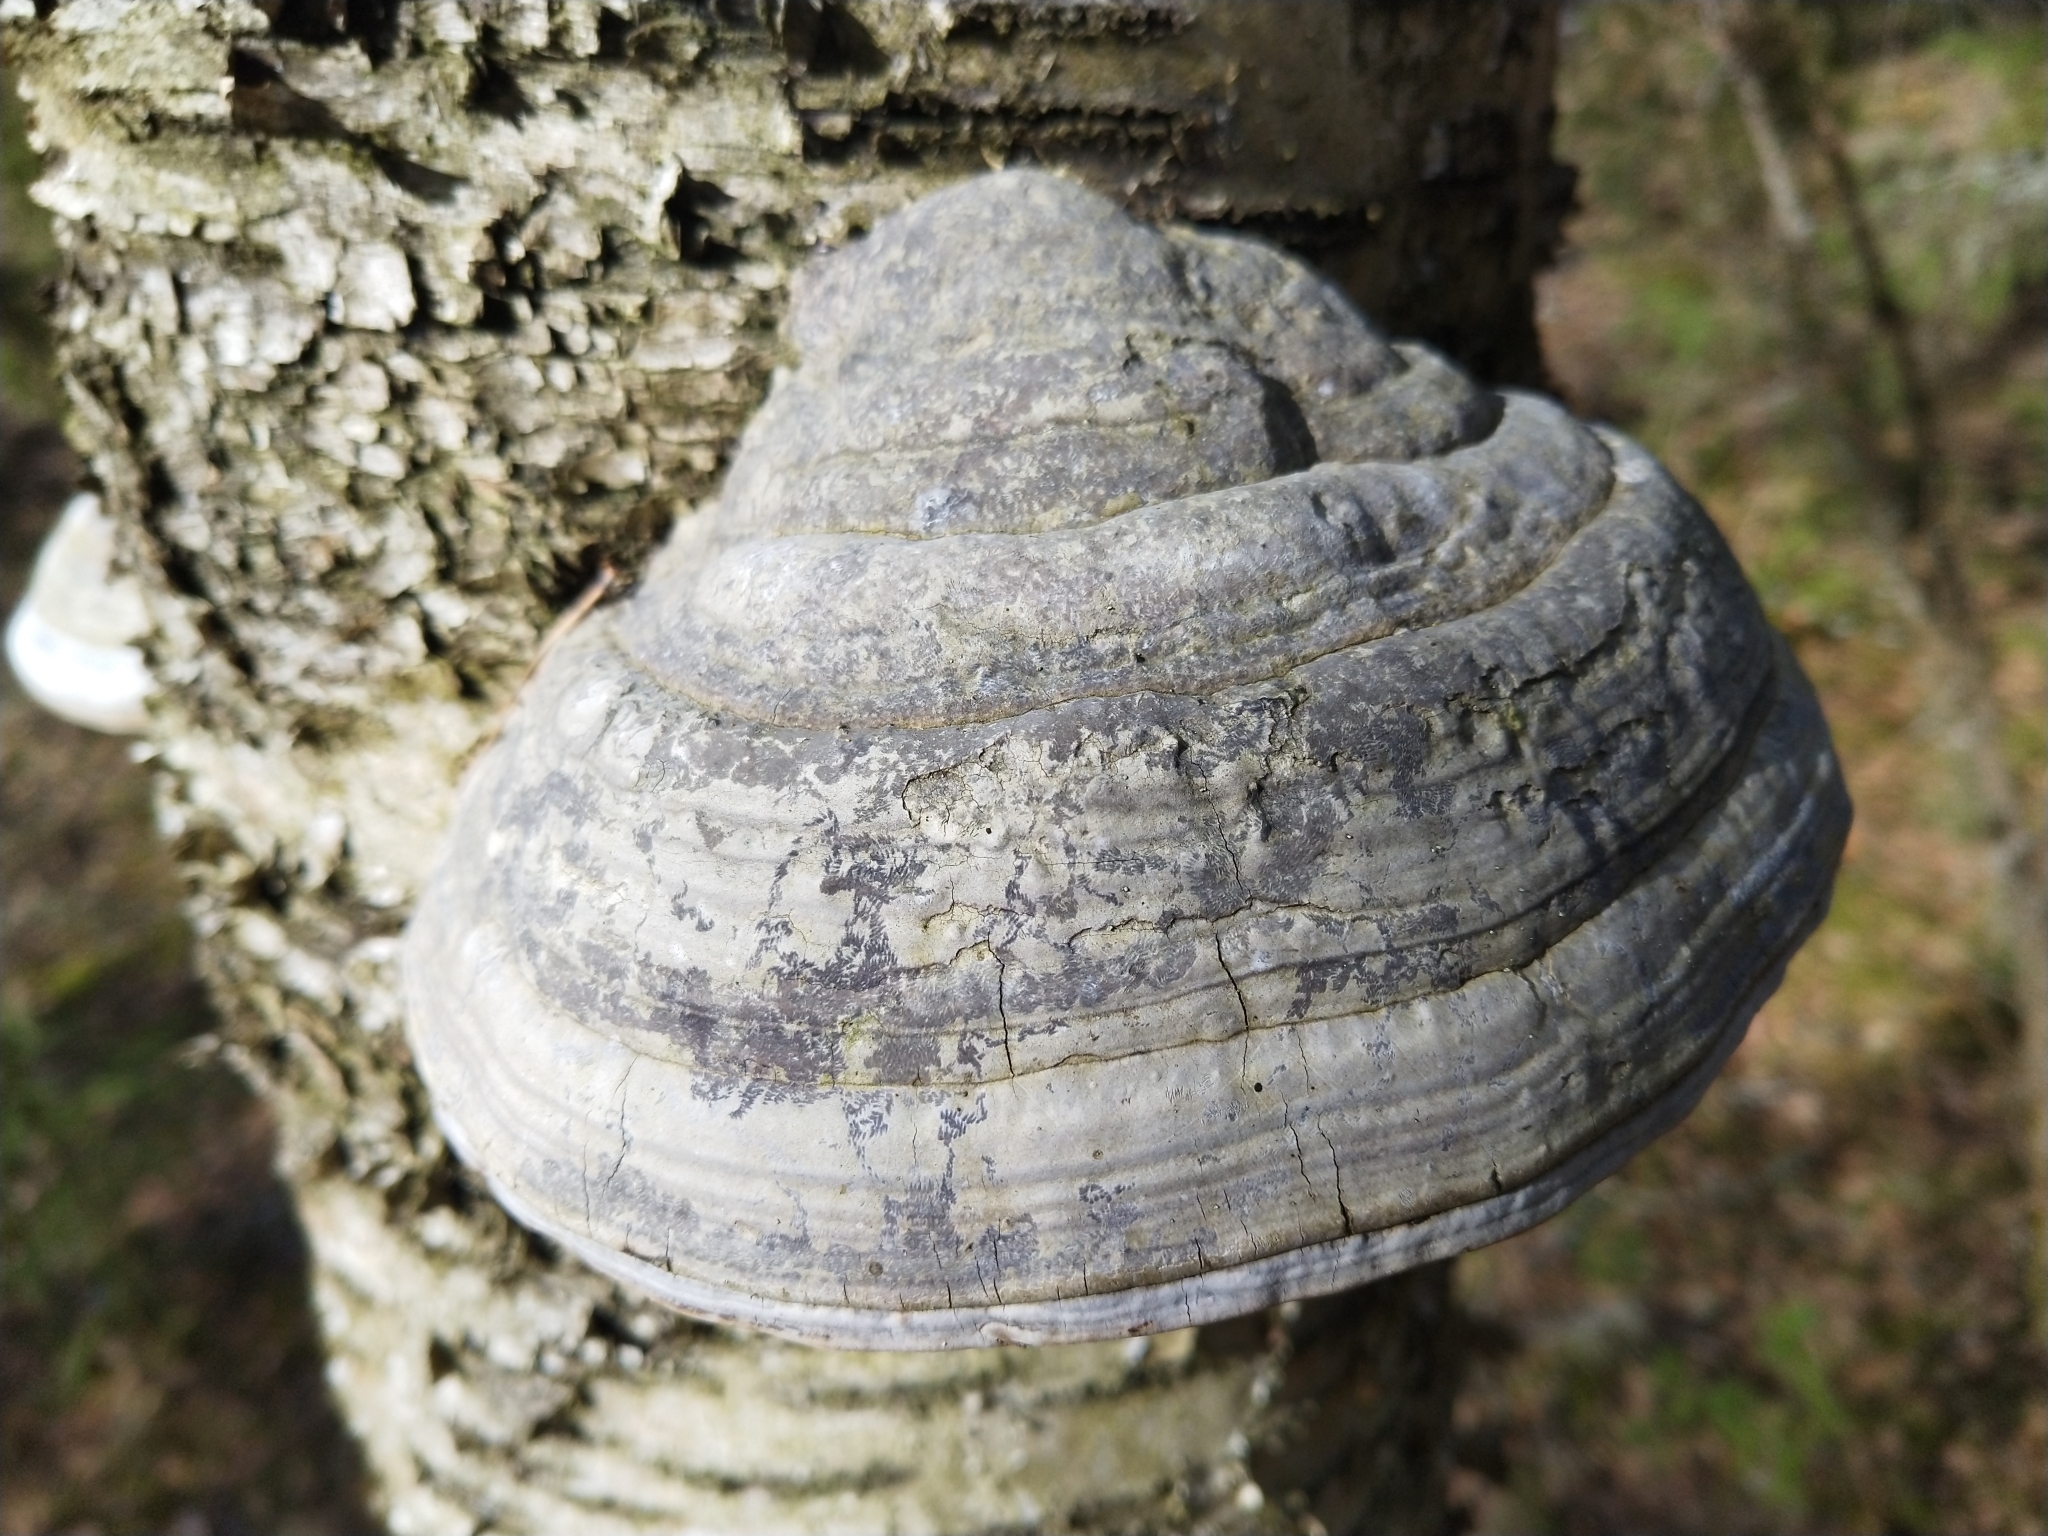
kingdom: Fungi
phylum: Basidiomycota
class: Agaricomycetes
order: Polyporales
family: Polyporaceae
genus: Fomes
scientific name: Fomes fomentarius
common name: Hoof fungus
